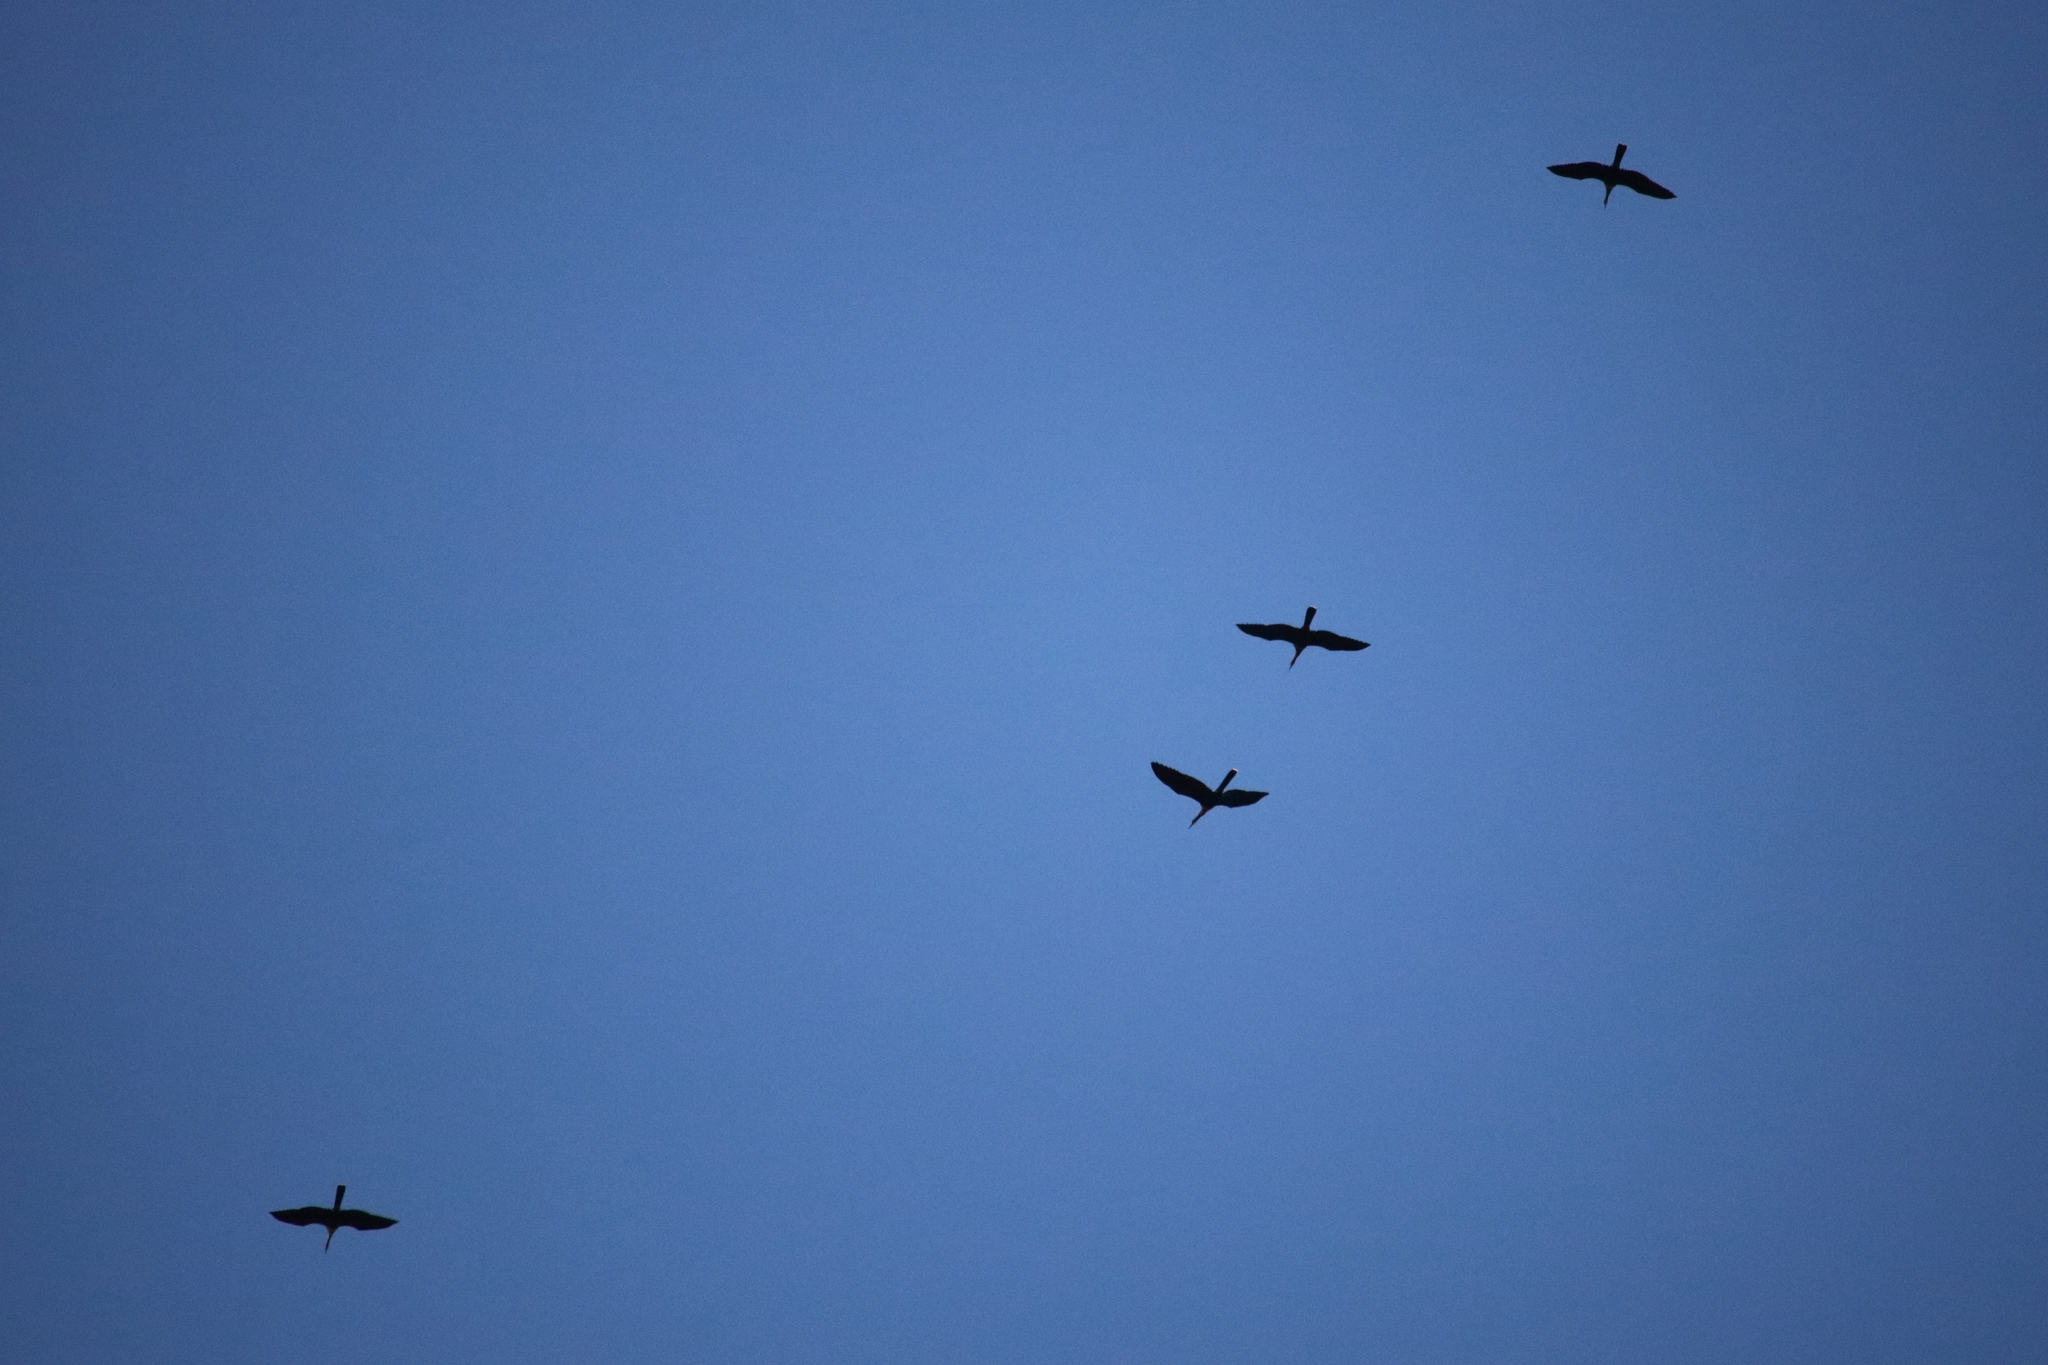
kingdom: Animalia
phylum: Chordata
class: Aves
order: Suliformes
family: Anhingidae
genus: Anhinga
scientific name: Anhinga anhinga
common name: Anhinga
